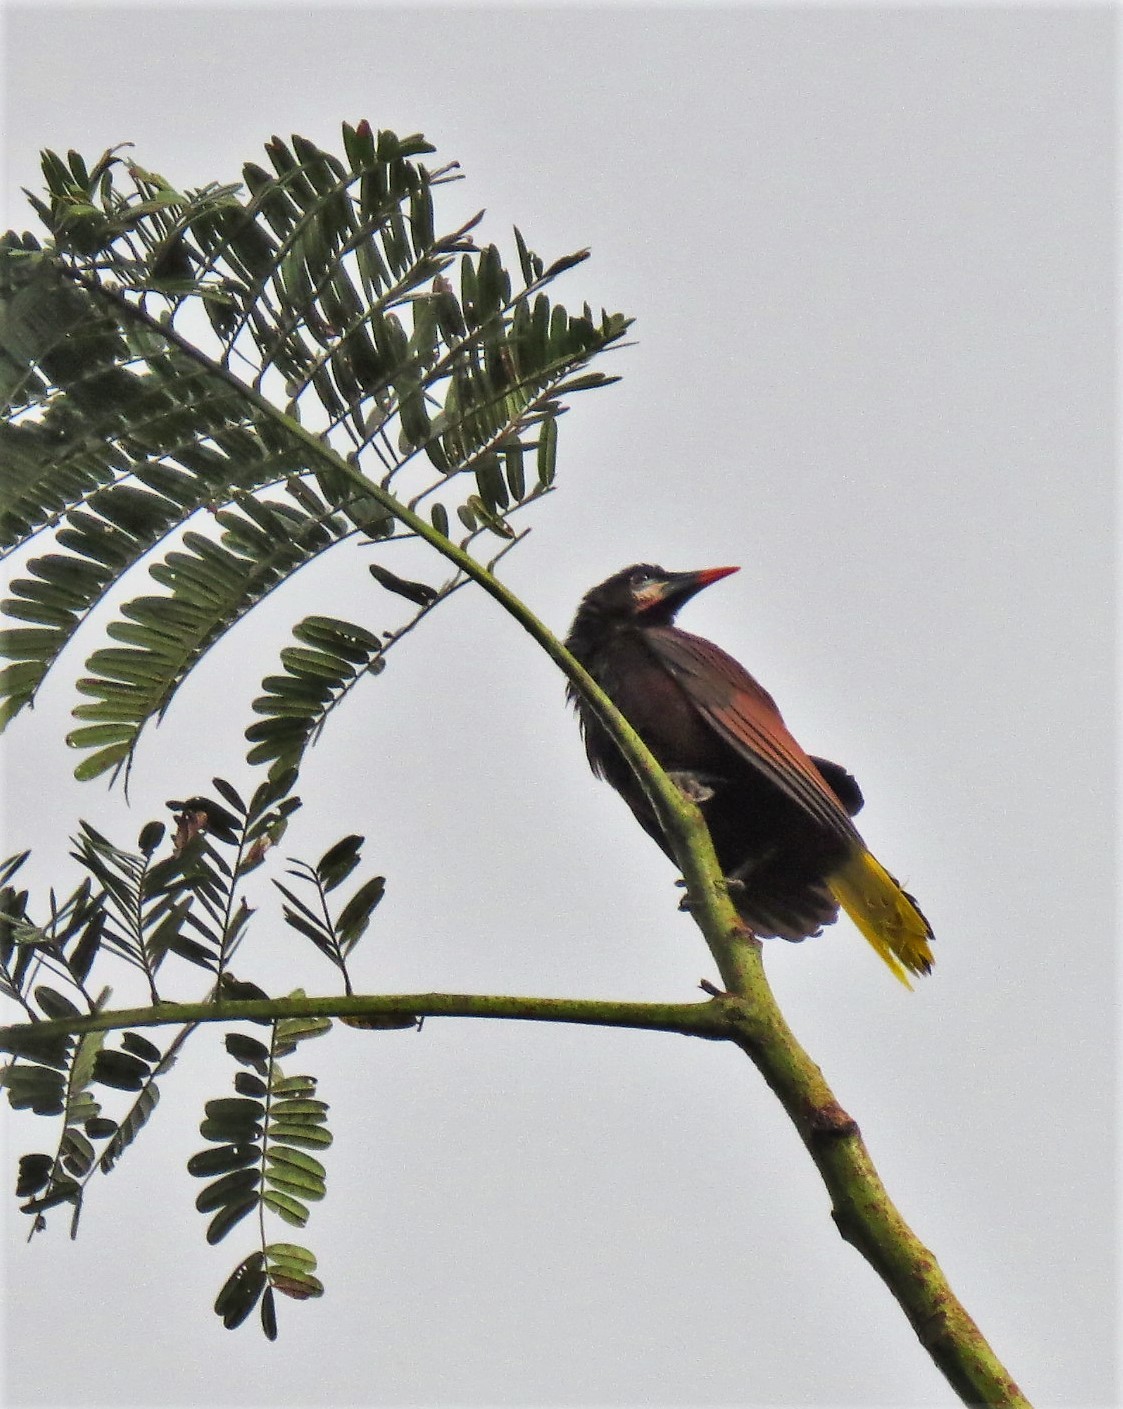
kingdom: Animalia
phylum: Chordata
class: Aves
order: Passeriformes
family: Icteridae
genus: Psarocolius
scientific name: Psarocolius montezuma
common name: Montezuma oropendola
